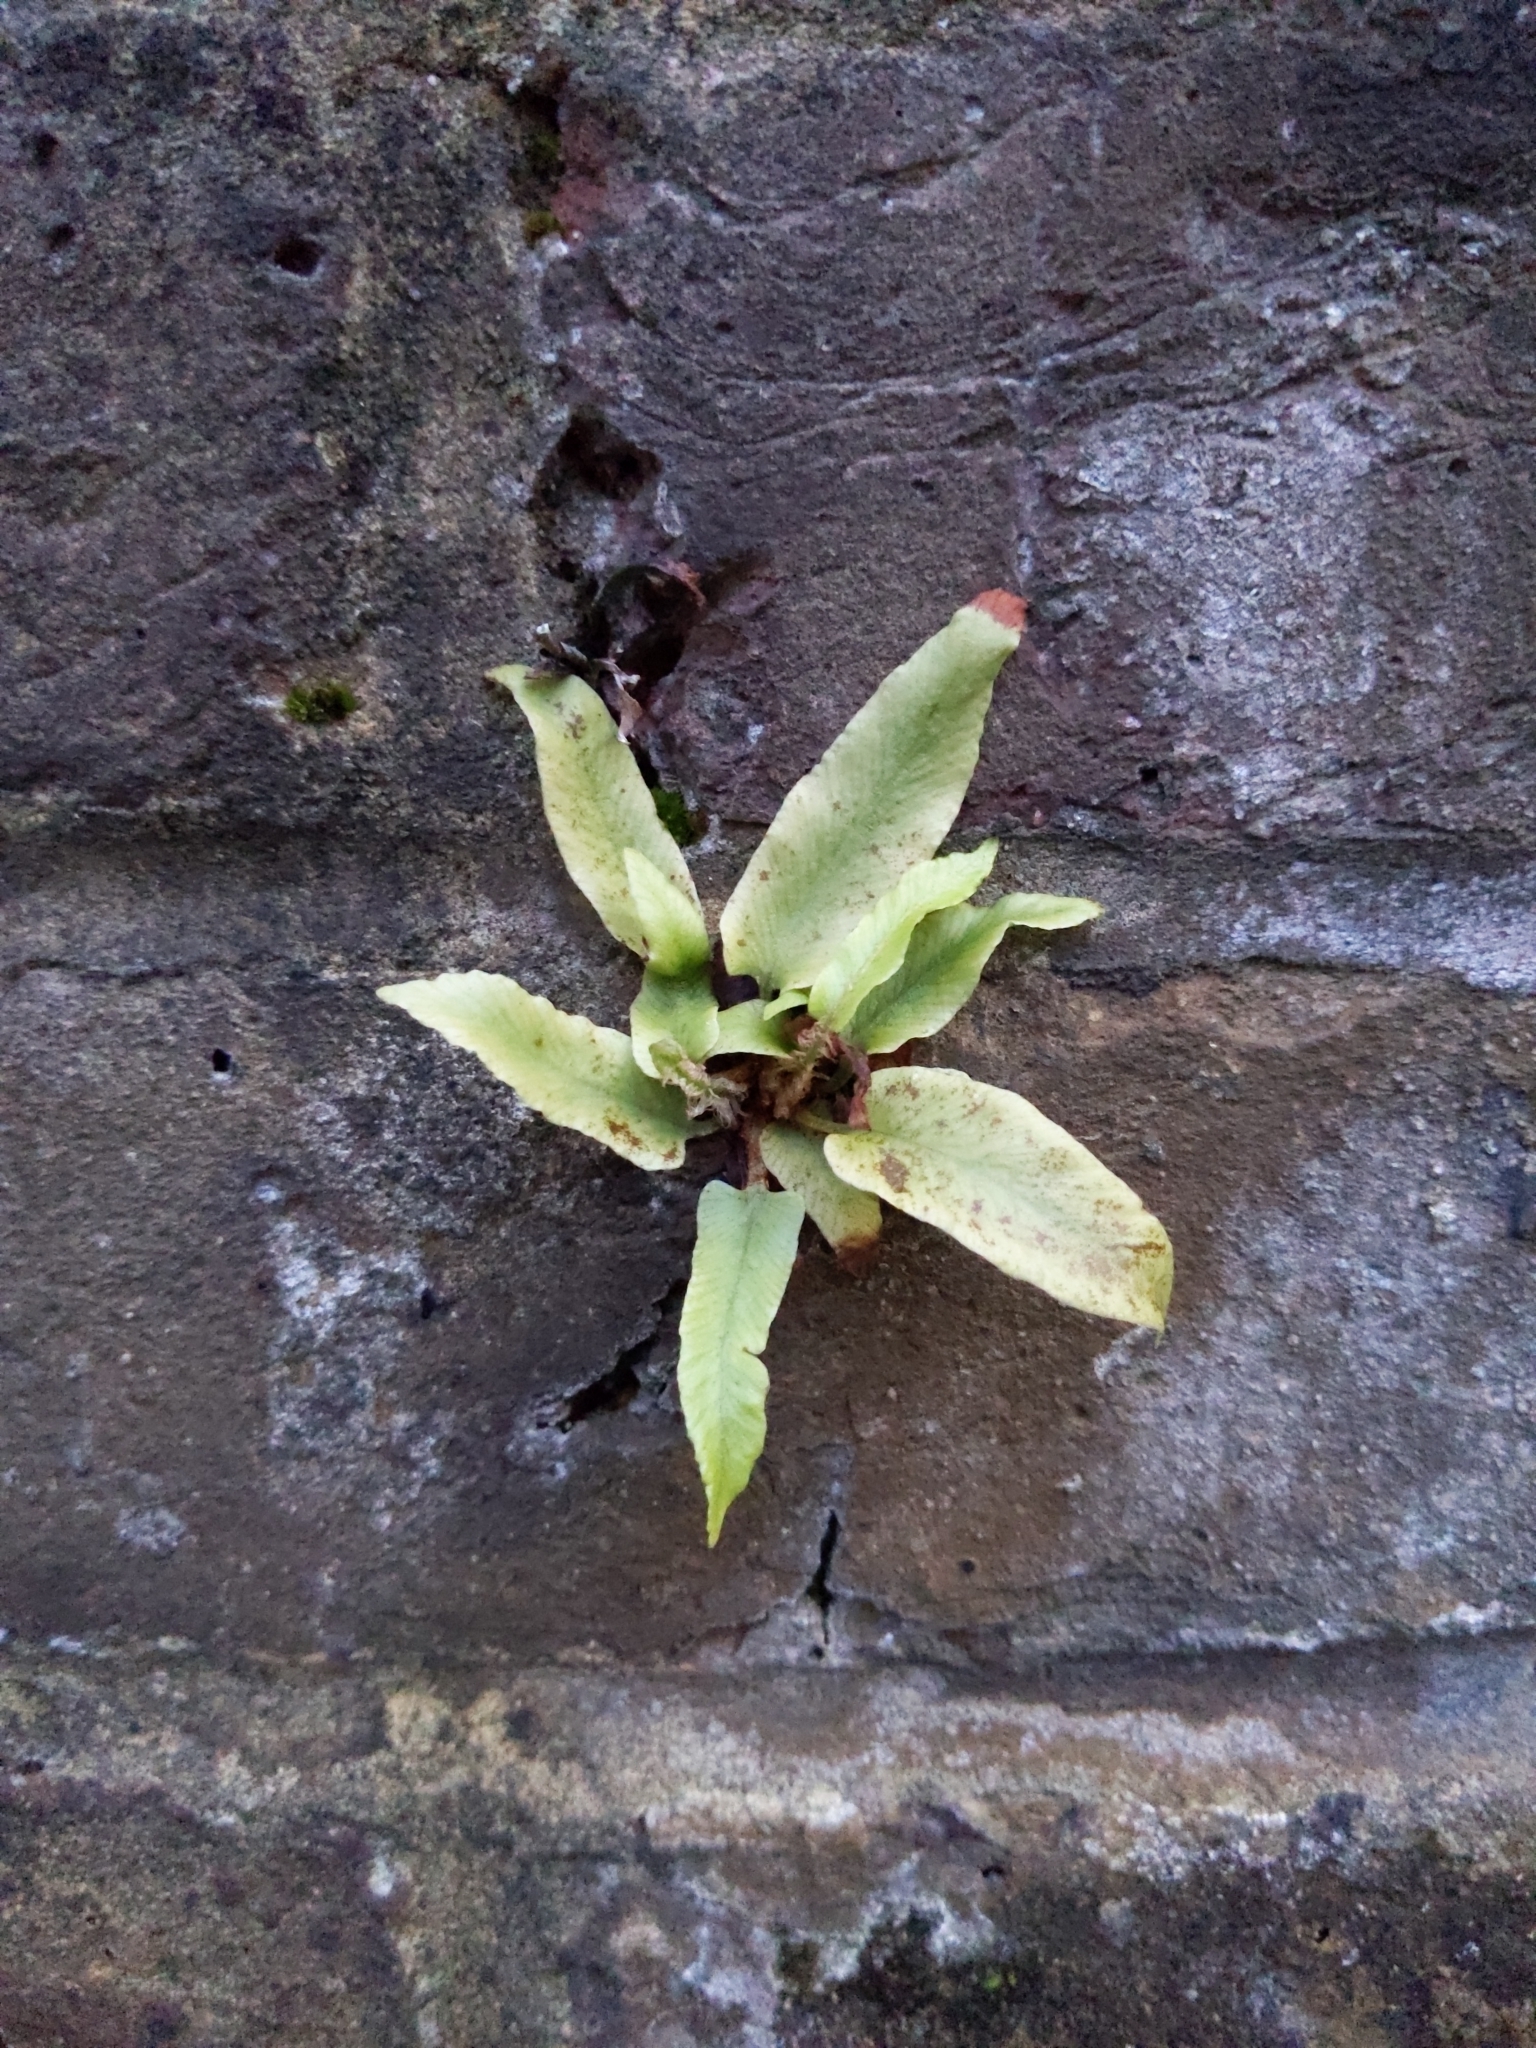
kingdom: Plantae
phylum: Tracheophyta
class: Polypodiopsida
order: Polypodiales
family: Aspleniaceae
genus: Asplenium
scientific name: Asplenium scolopendrium
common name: Hart's-tongue fern
